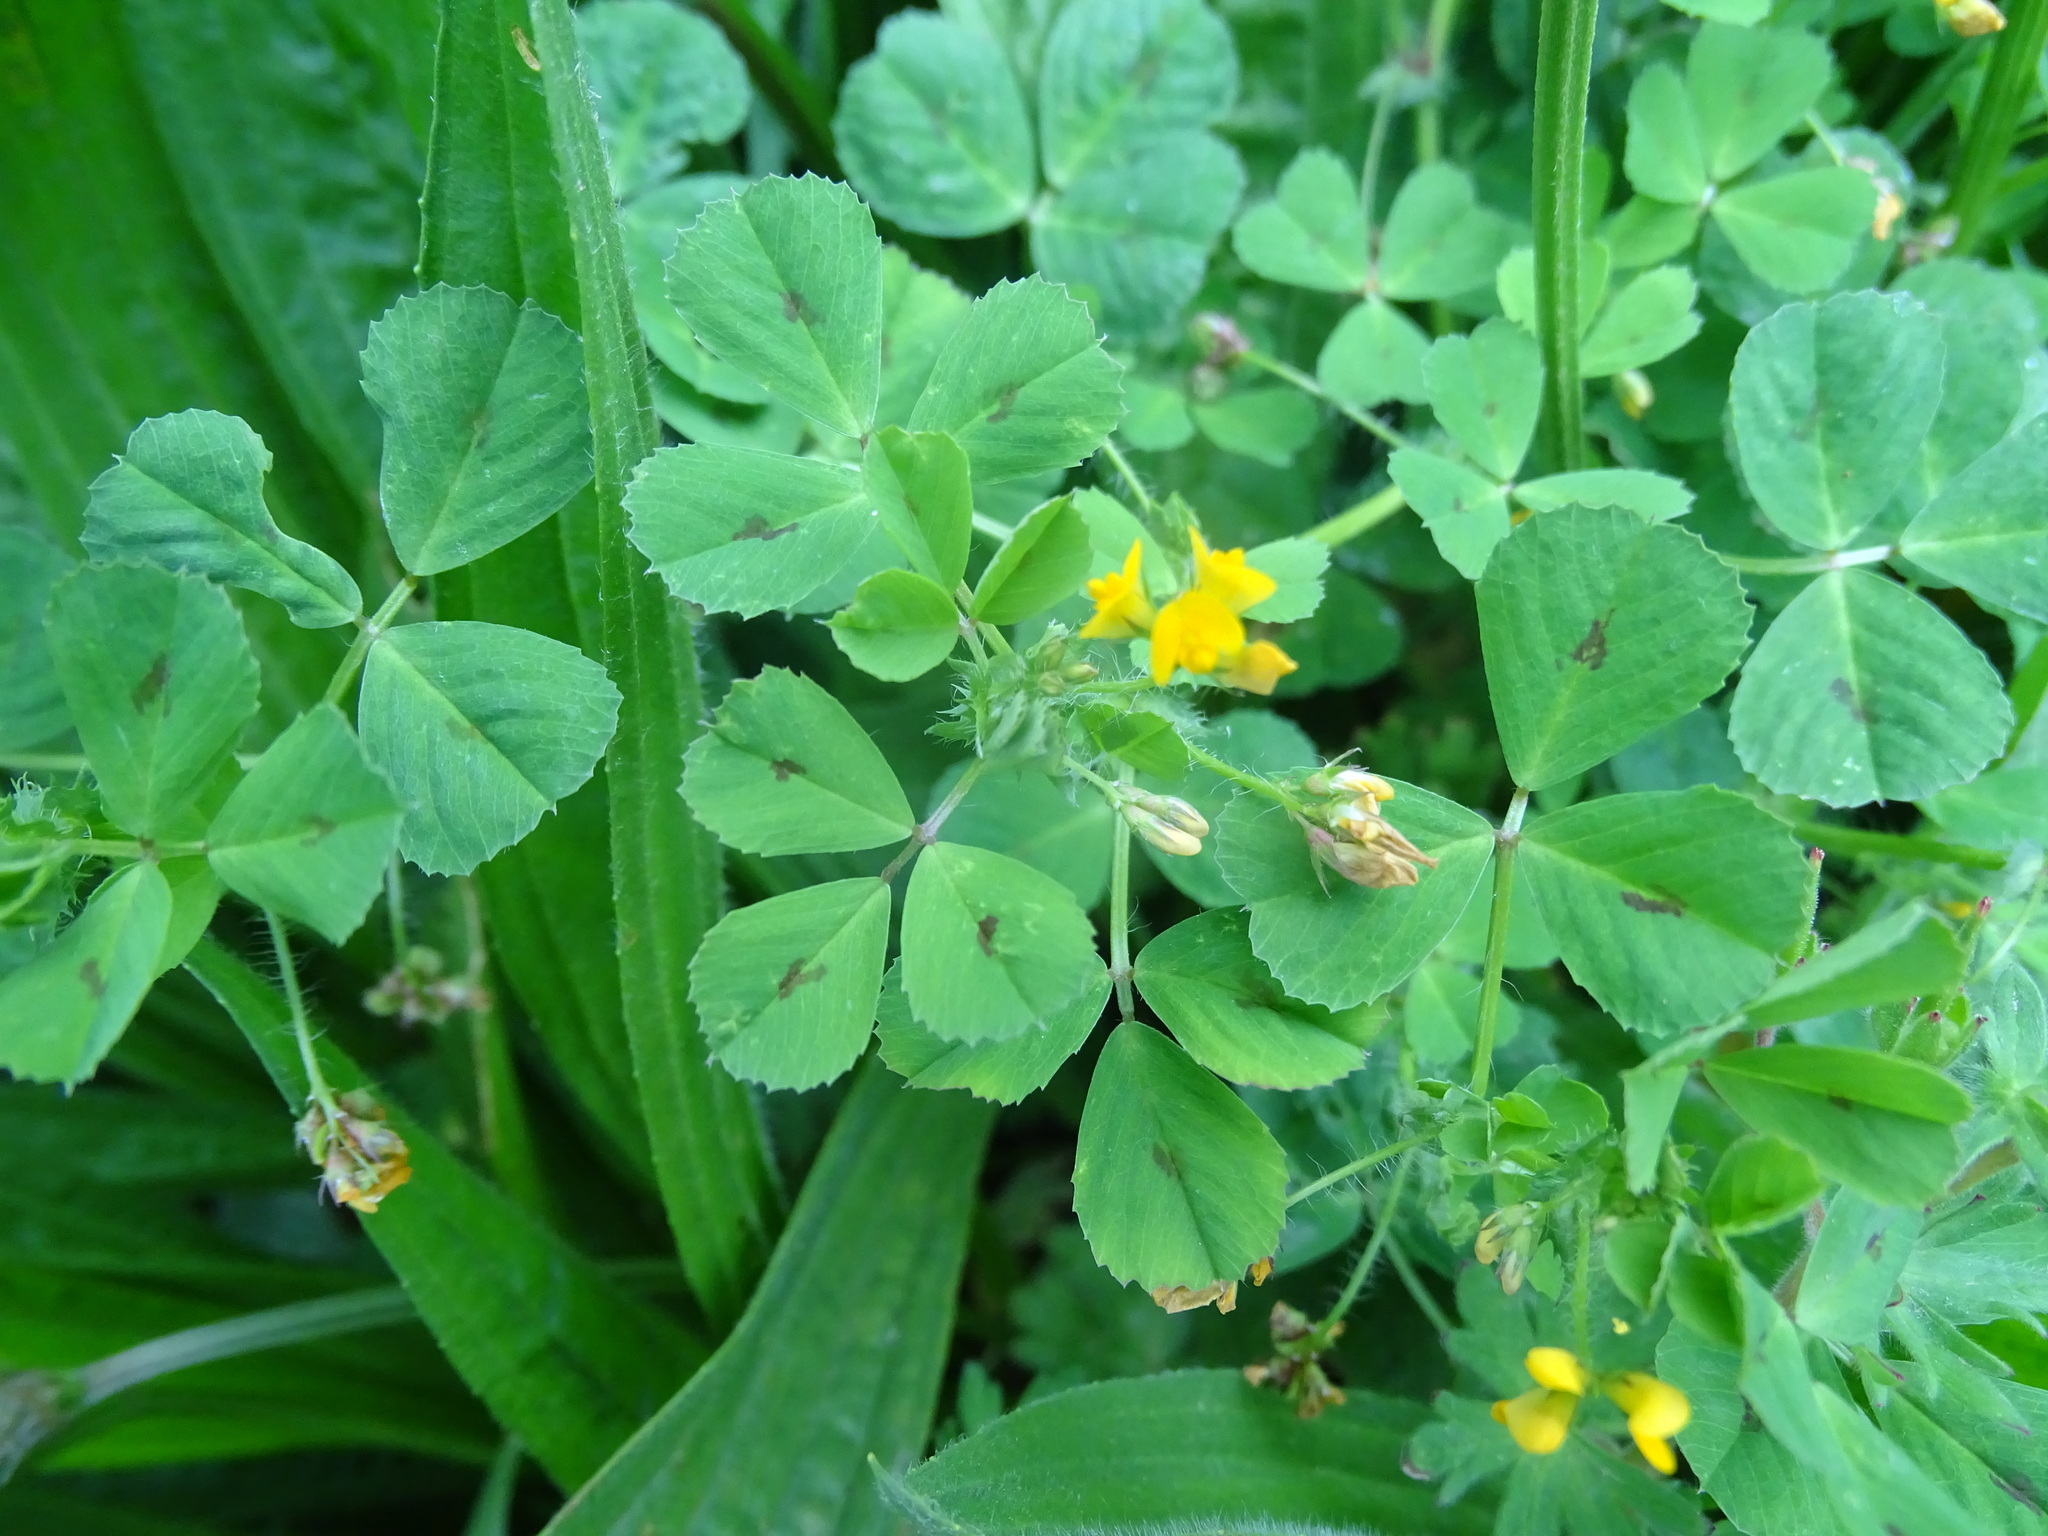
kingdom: Plantae
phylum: Tracheophyta
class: Magnoliopsida
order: Fabales
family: Fabaceae
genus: Medicago
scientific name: Medicago arabica
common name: Spotted medick
